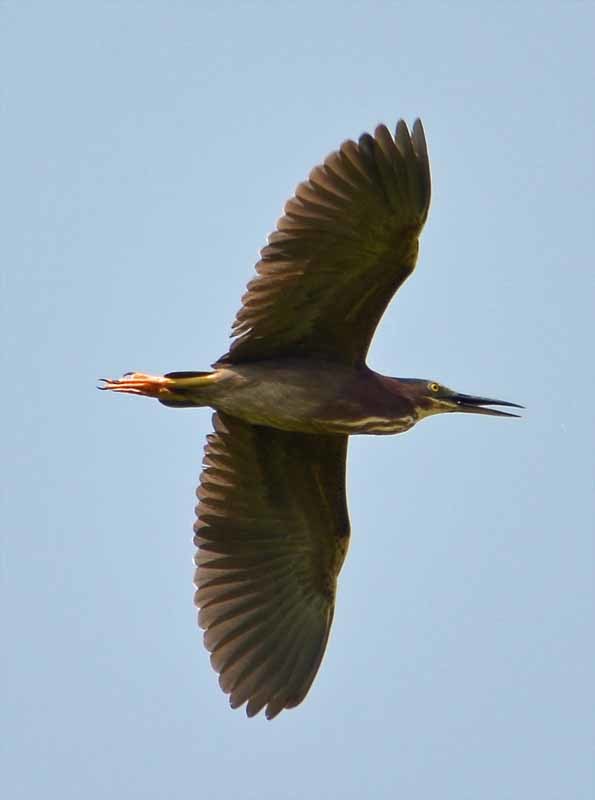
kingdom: Animalia
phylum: Chordata
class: Aves
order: Pelecaniformes
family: Ardeidae
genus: Butorides
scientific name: Butorides virescens
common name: Green heron
